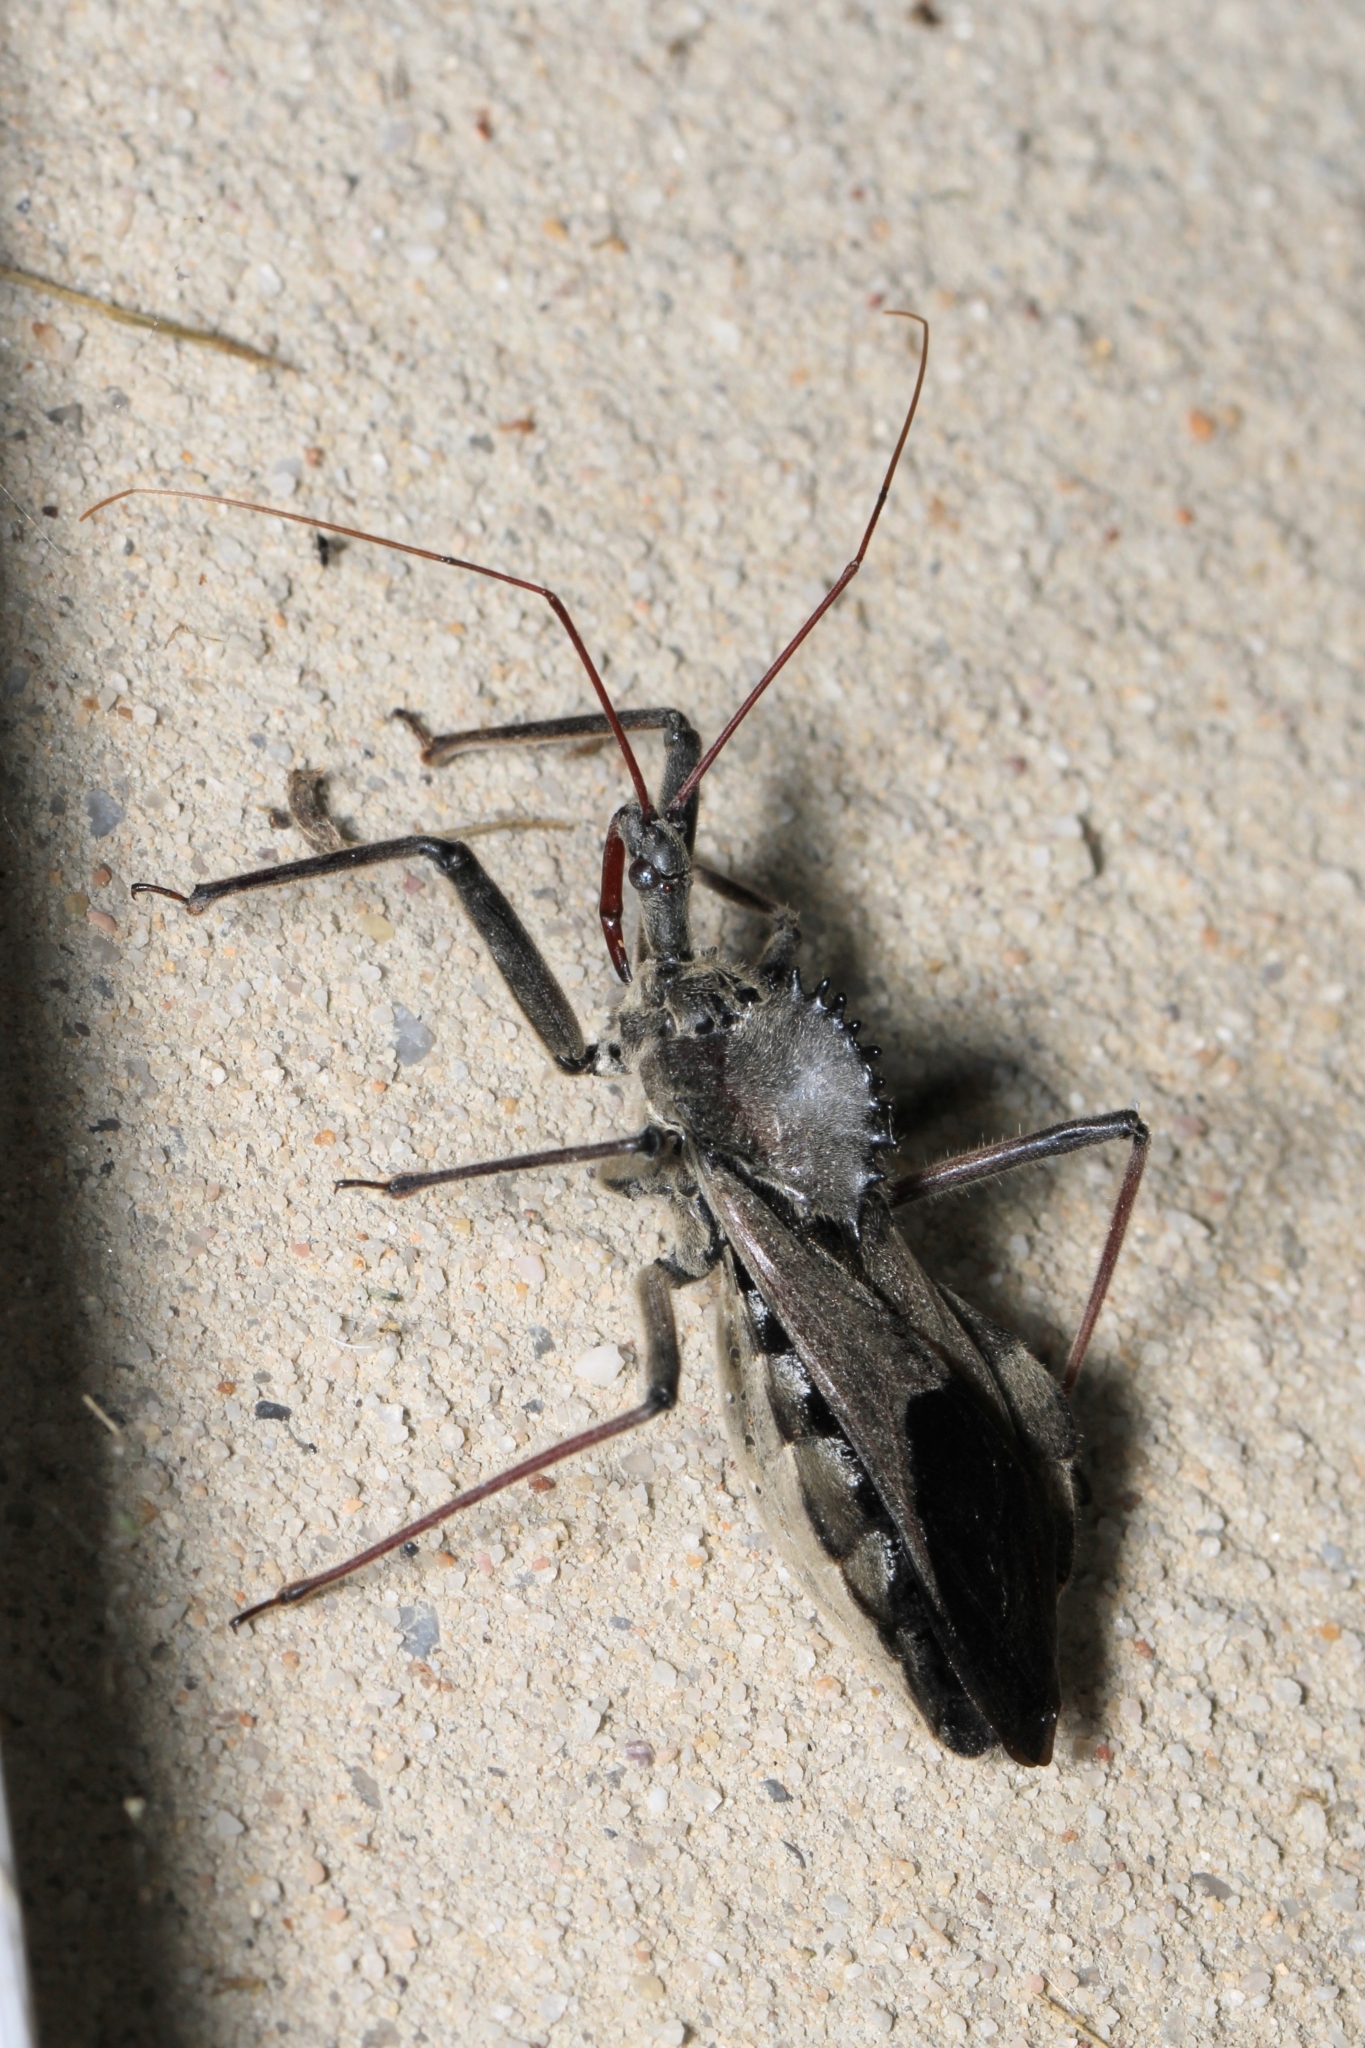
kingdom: Animalia
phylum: Arthropoda
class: Insecta
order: Hemiptera
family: Reduviidae
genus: Arilus
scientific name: Arilus cristatus
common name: North american wheel bug
